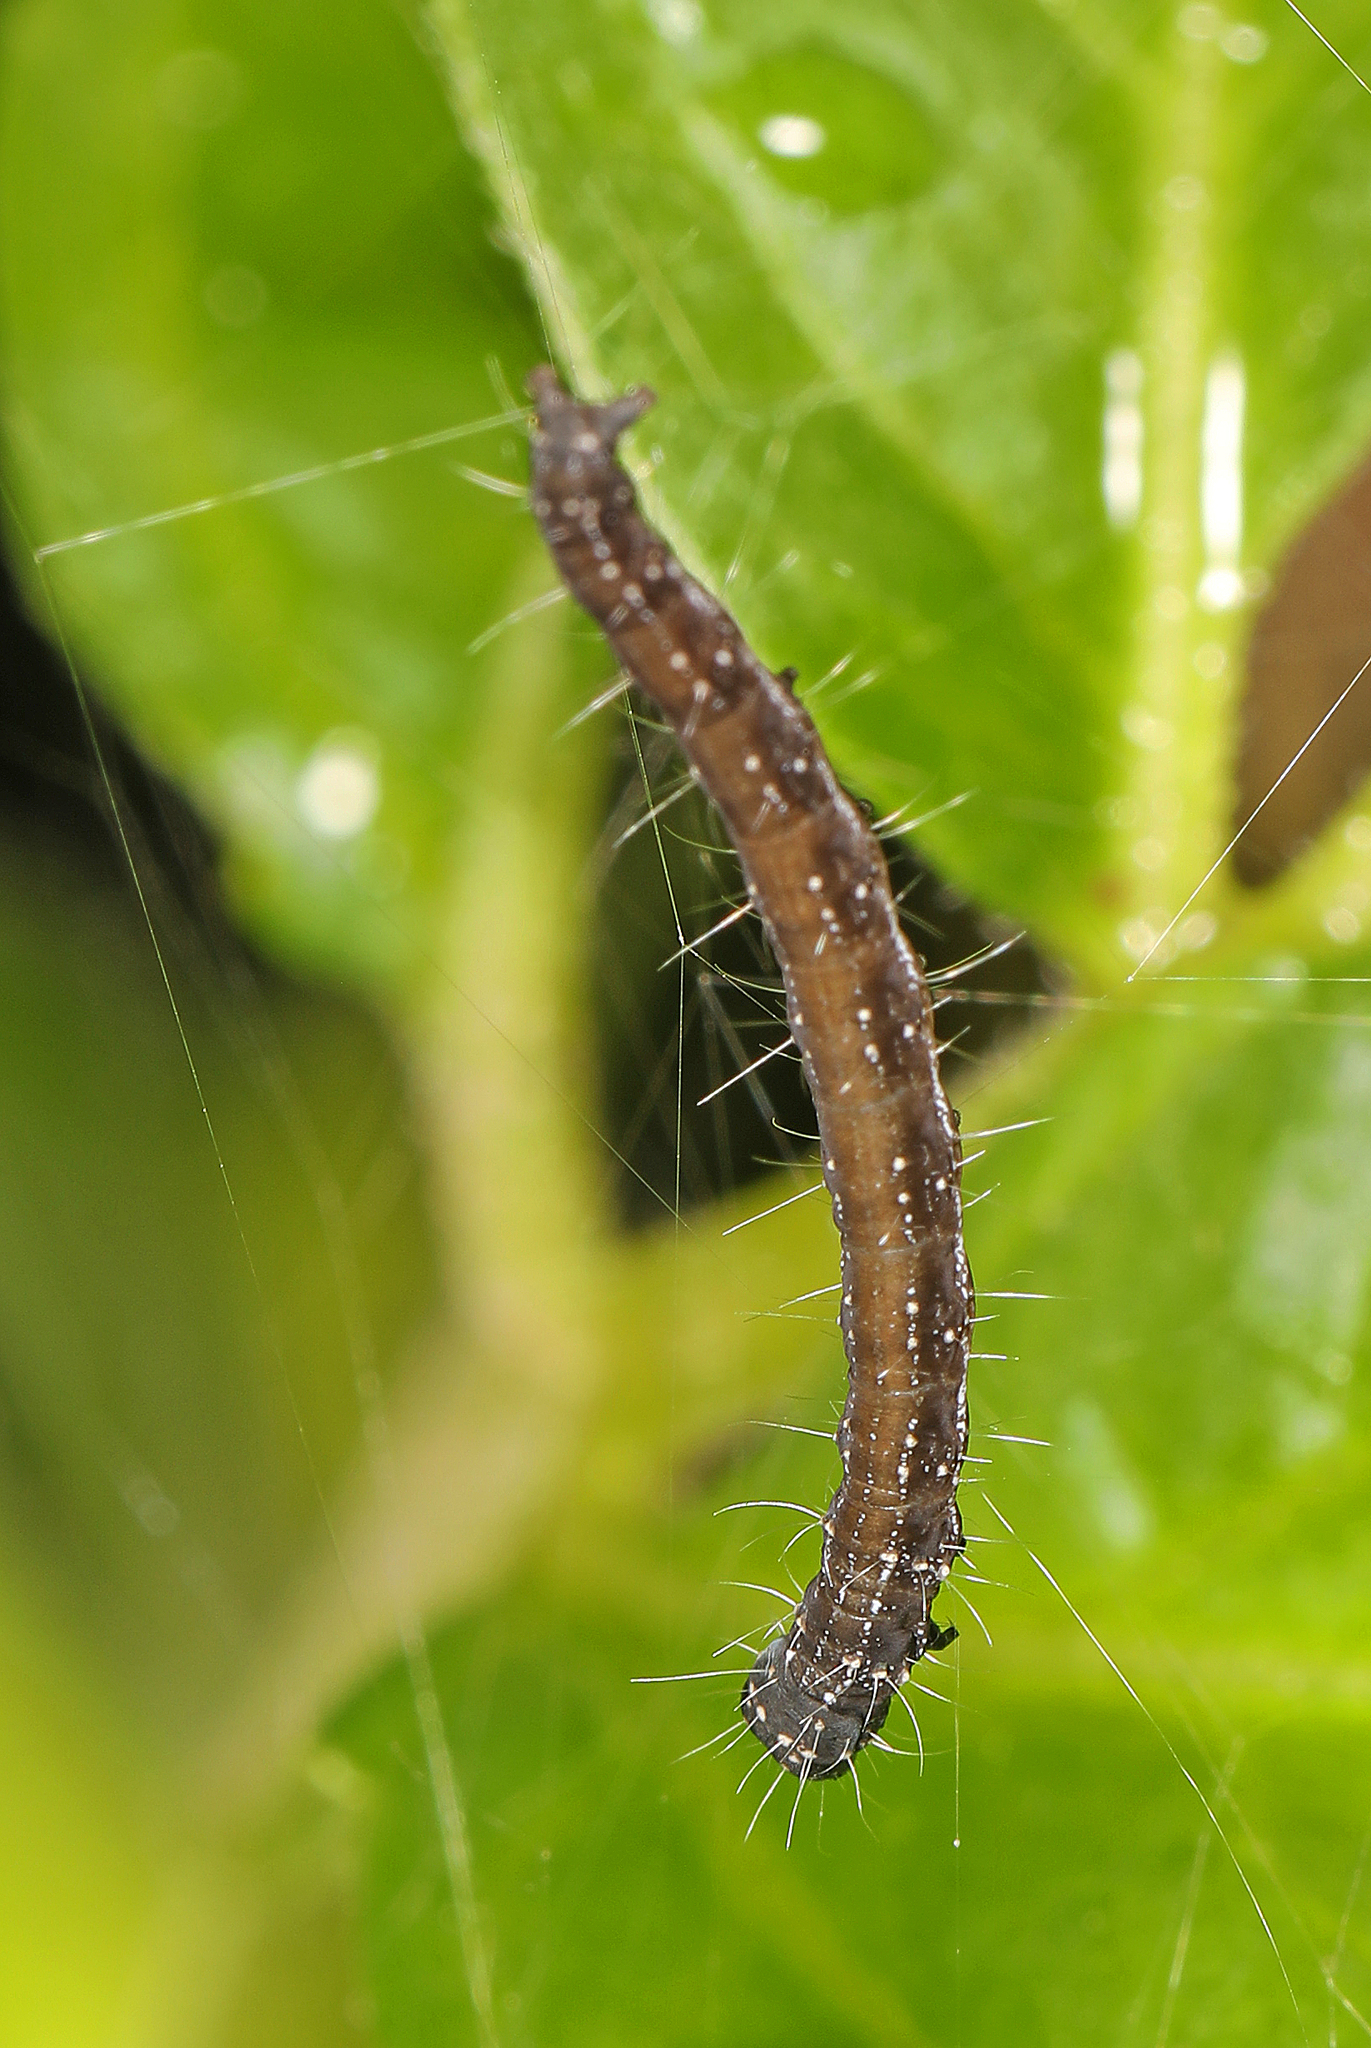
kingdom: Animalia
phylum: Arthropoda
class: Insecta
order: Lepidoptera
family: Attevidae
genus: Atteva
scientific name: Atteva punctella
